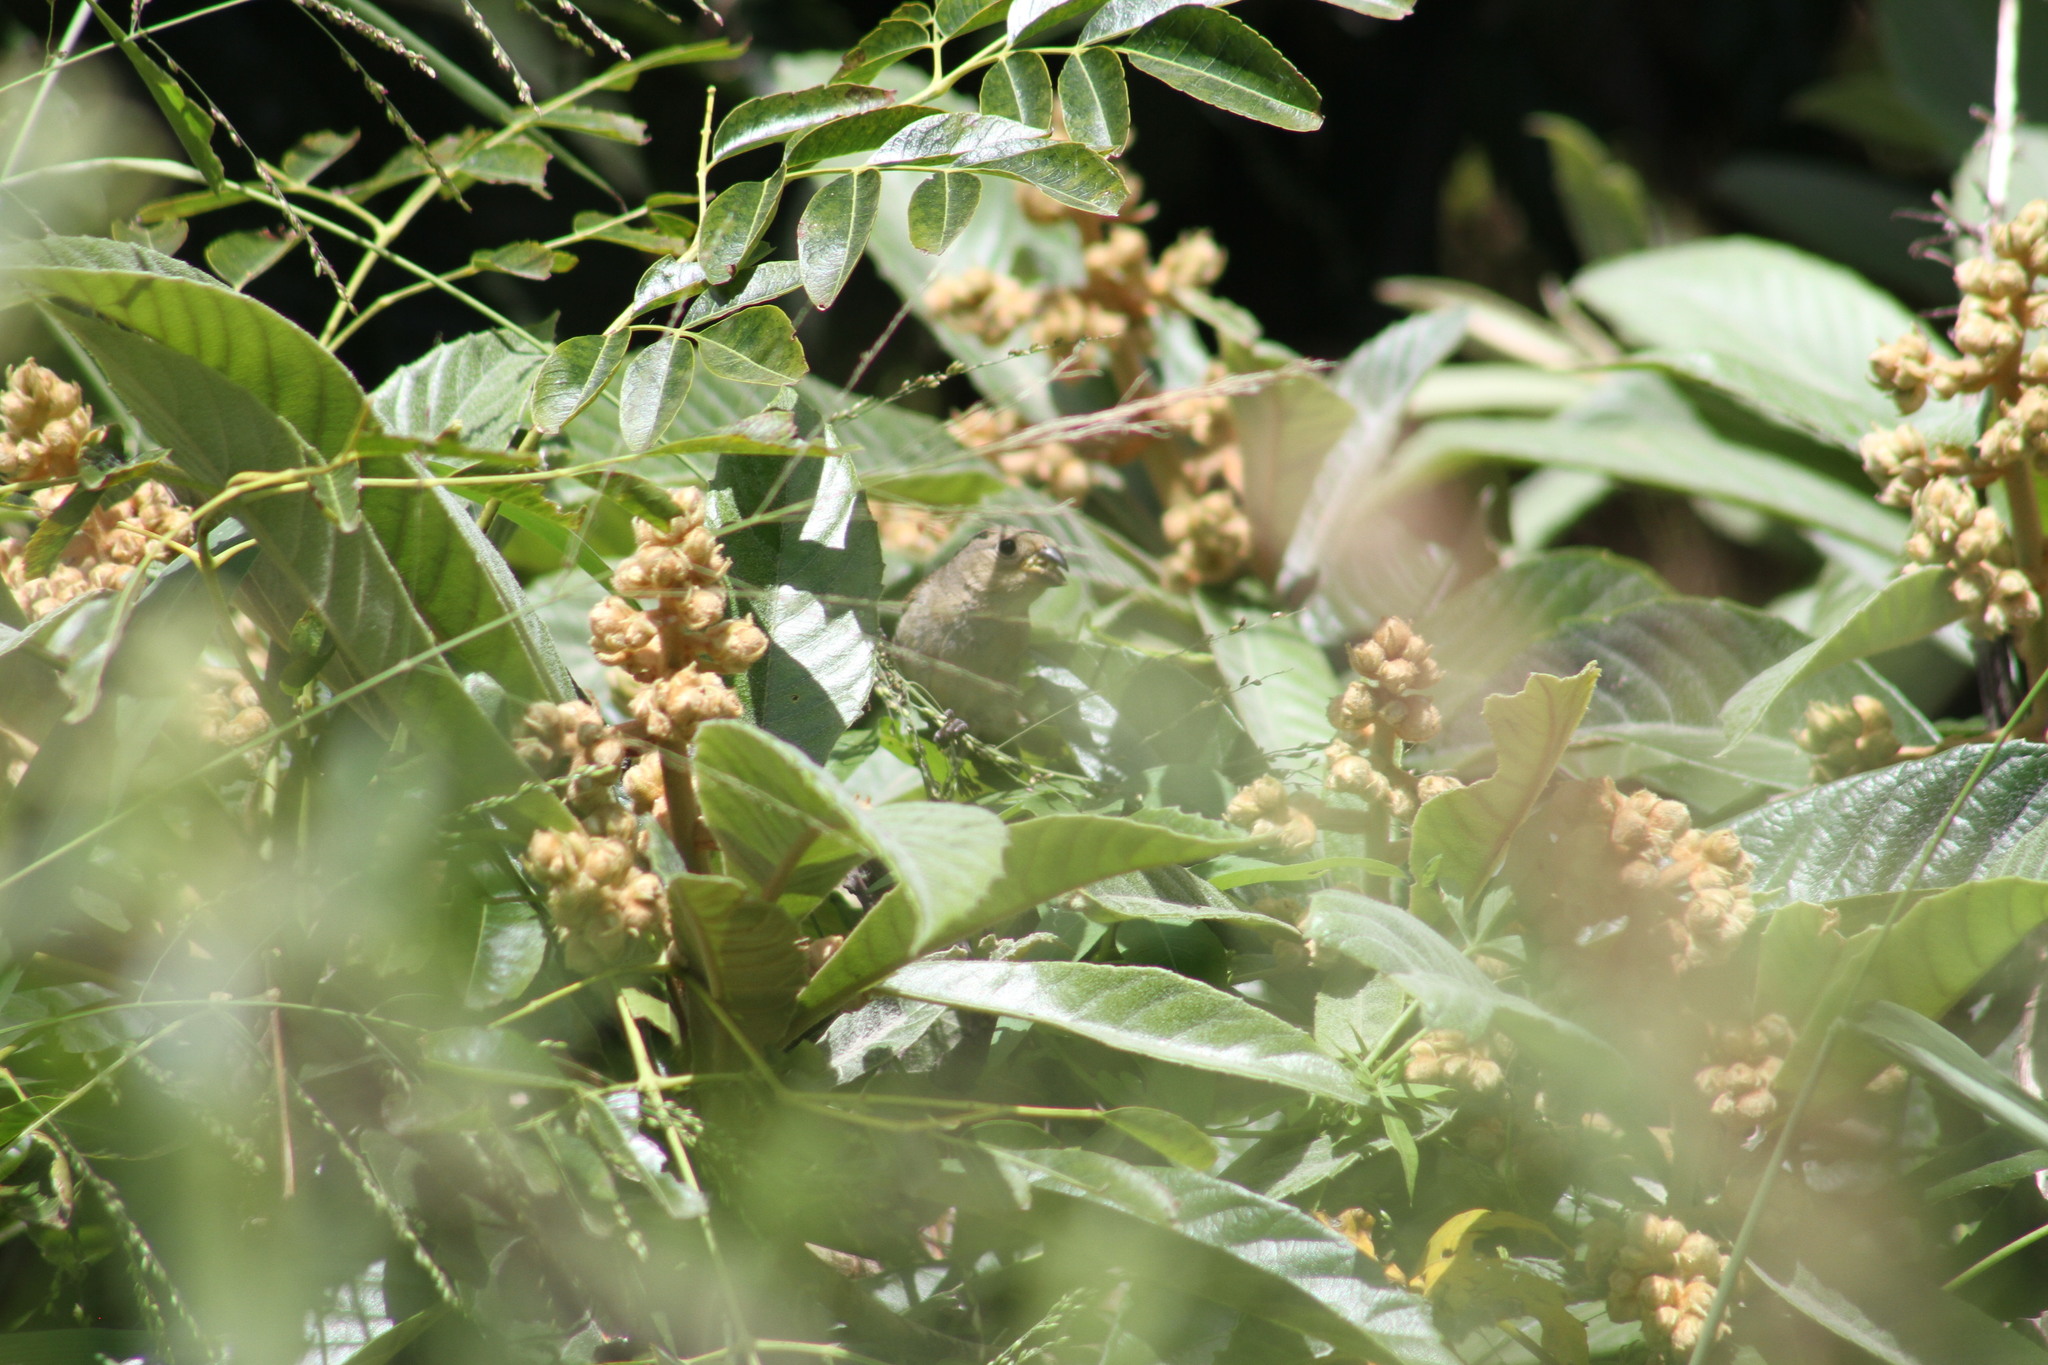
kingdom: Animalia
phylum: Chordata
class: Aves
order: Passeriformes
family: Thraupidae
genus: Sporophila
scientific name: Sporophila caerulescens
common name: Double-collared seedeater
